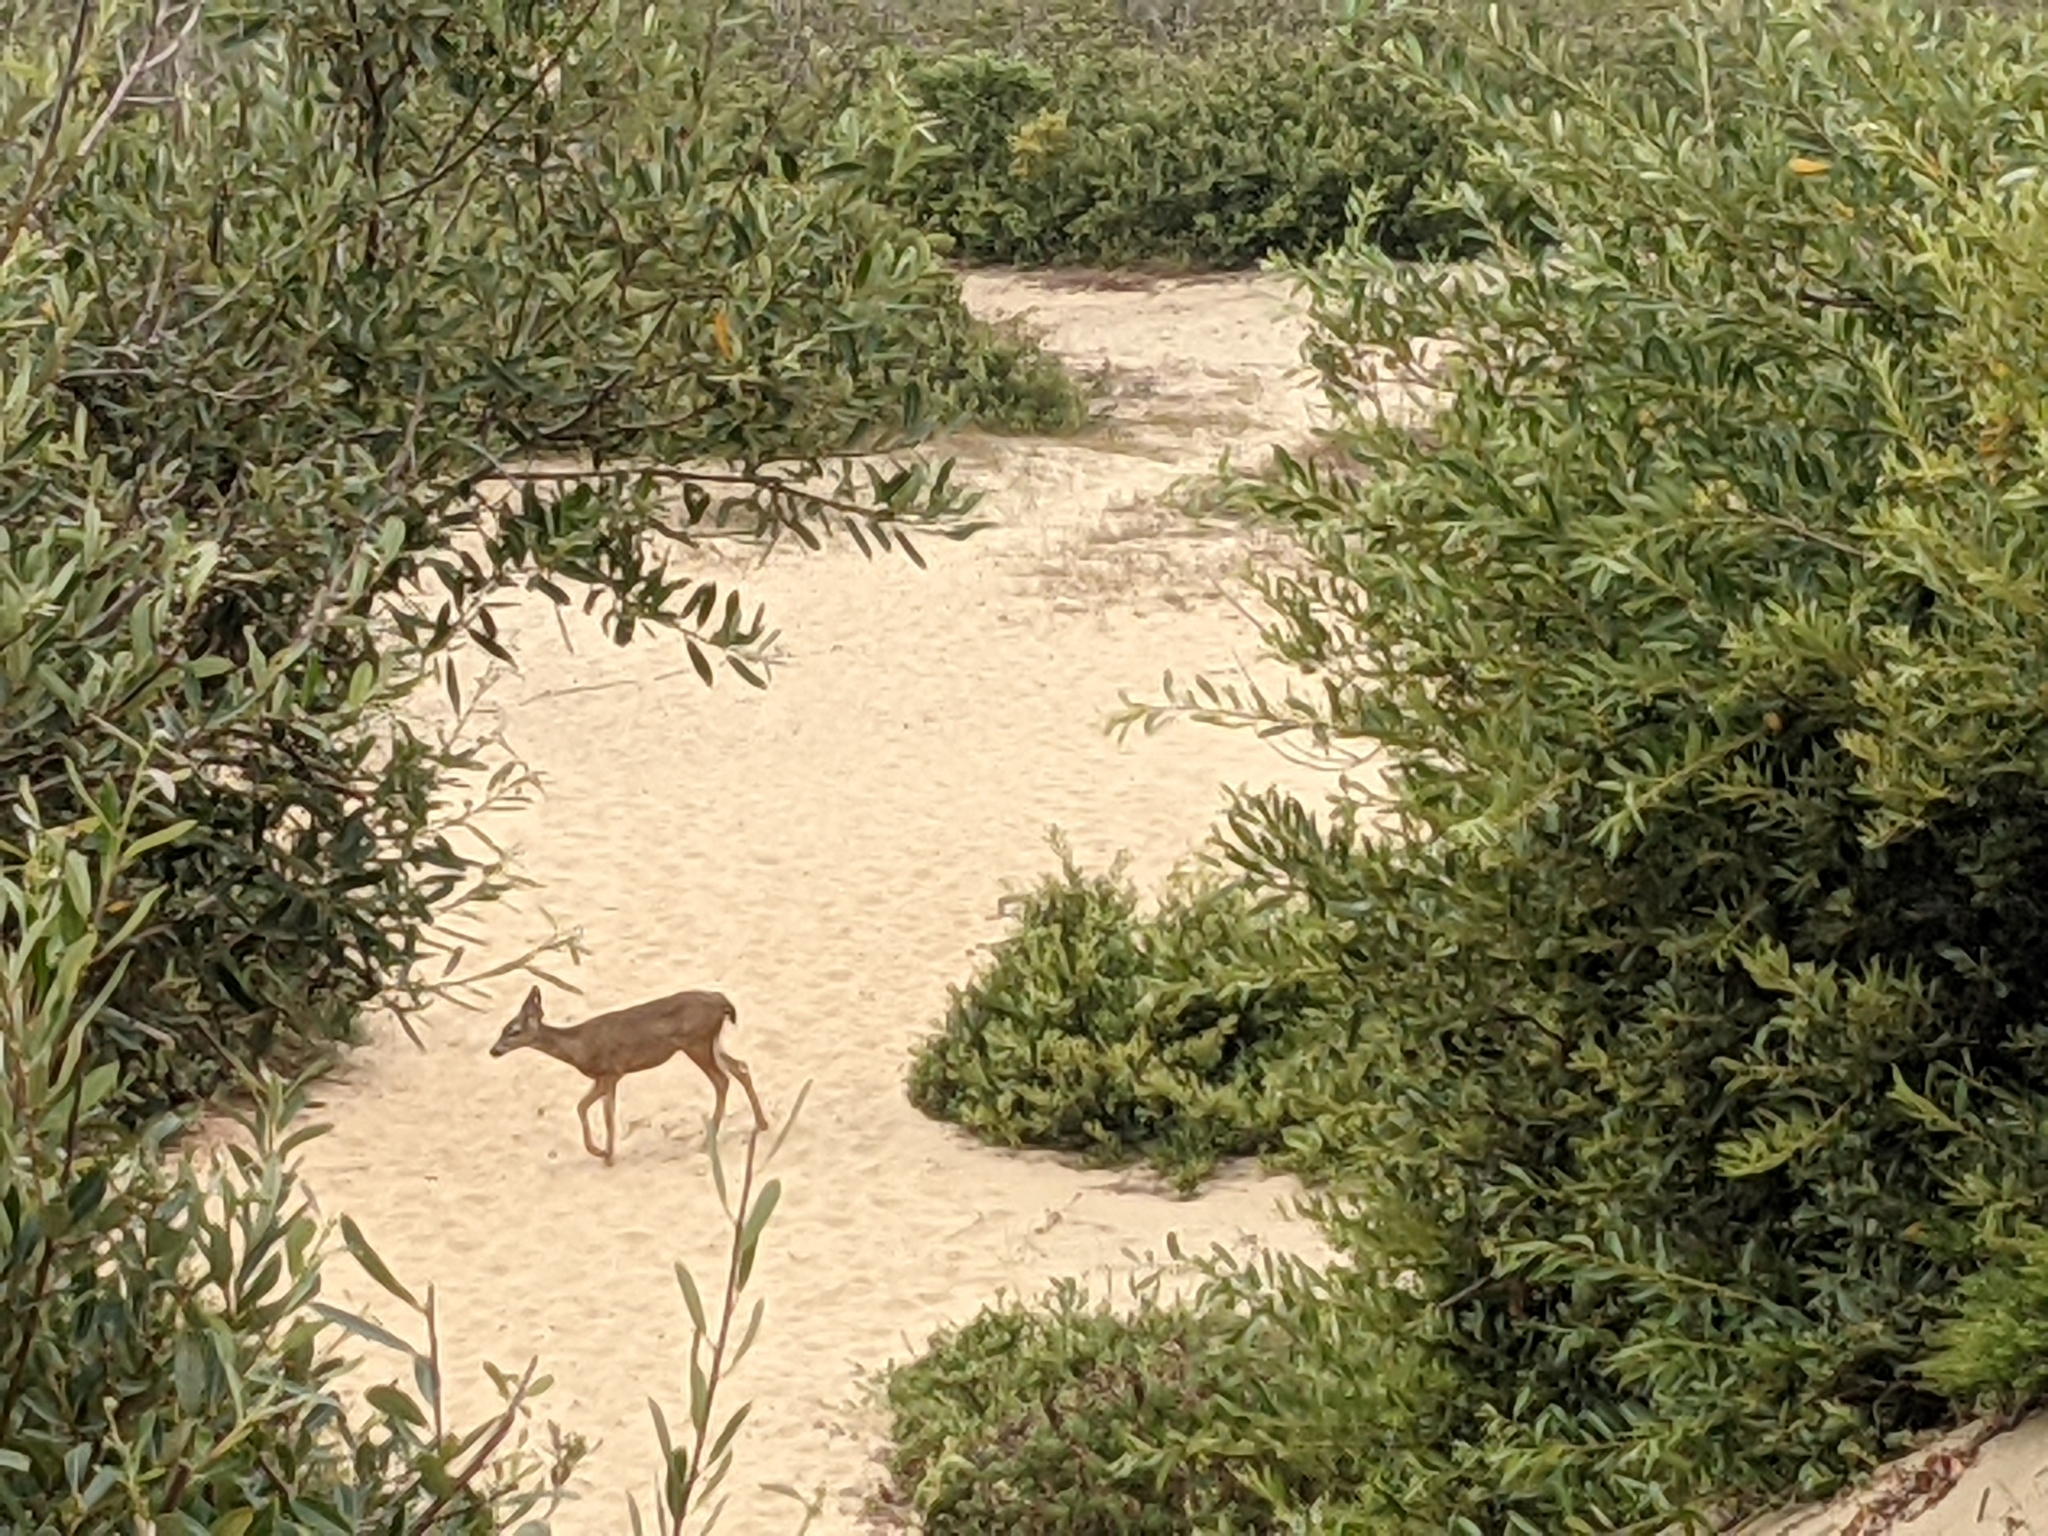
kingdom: Animalia
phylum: Chordata
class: Mammalia
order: Artiodactyla
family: Cervidae
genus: Odocoileus
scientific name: Odocoileus hemionus
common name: Mule deer
